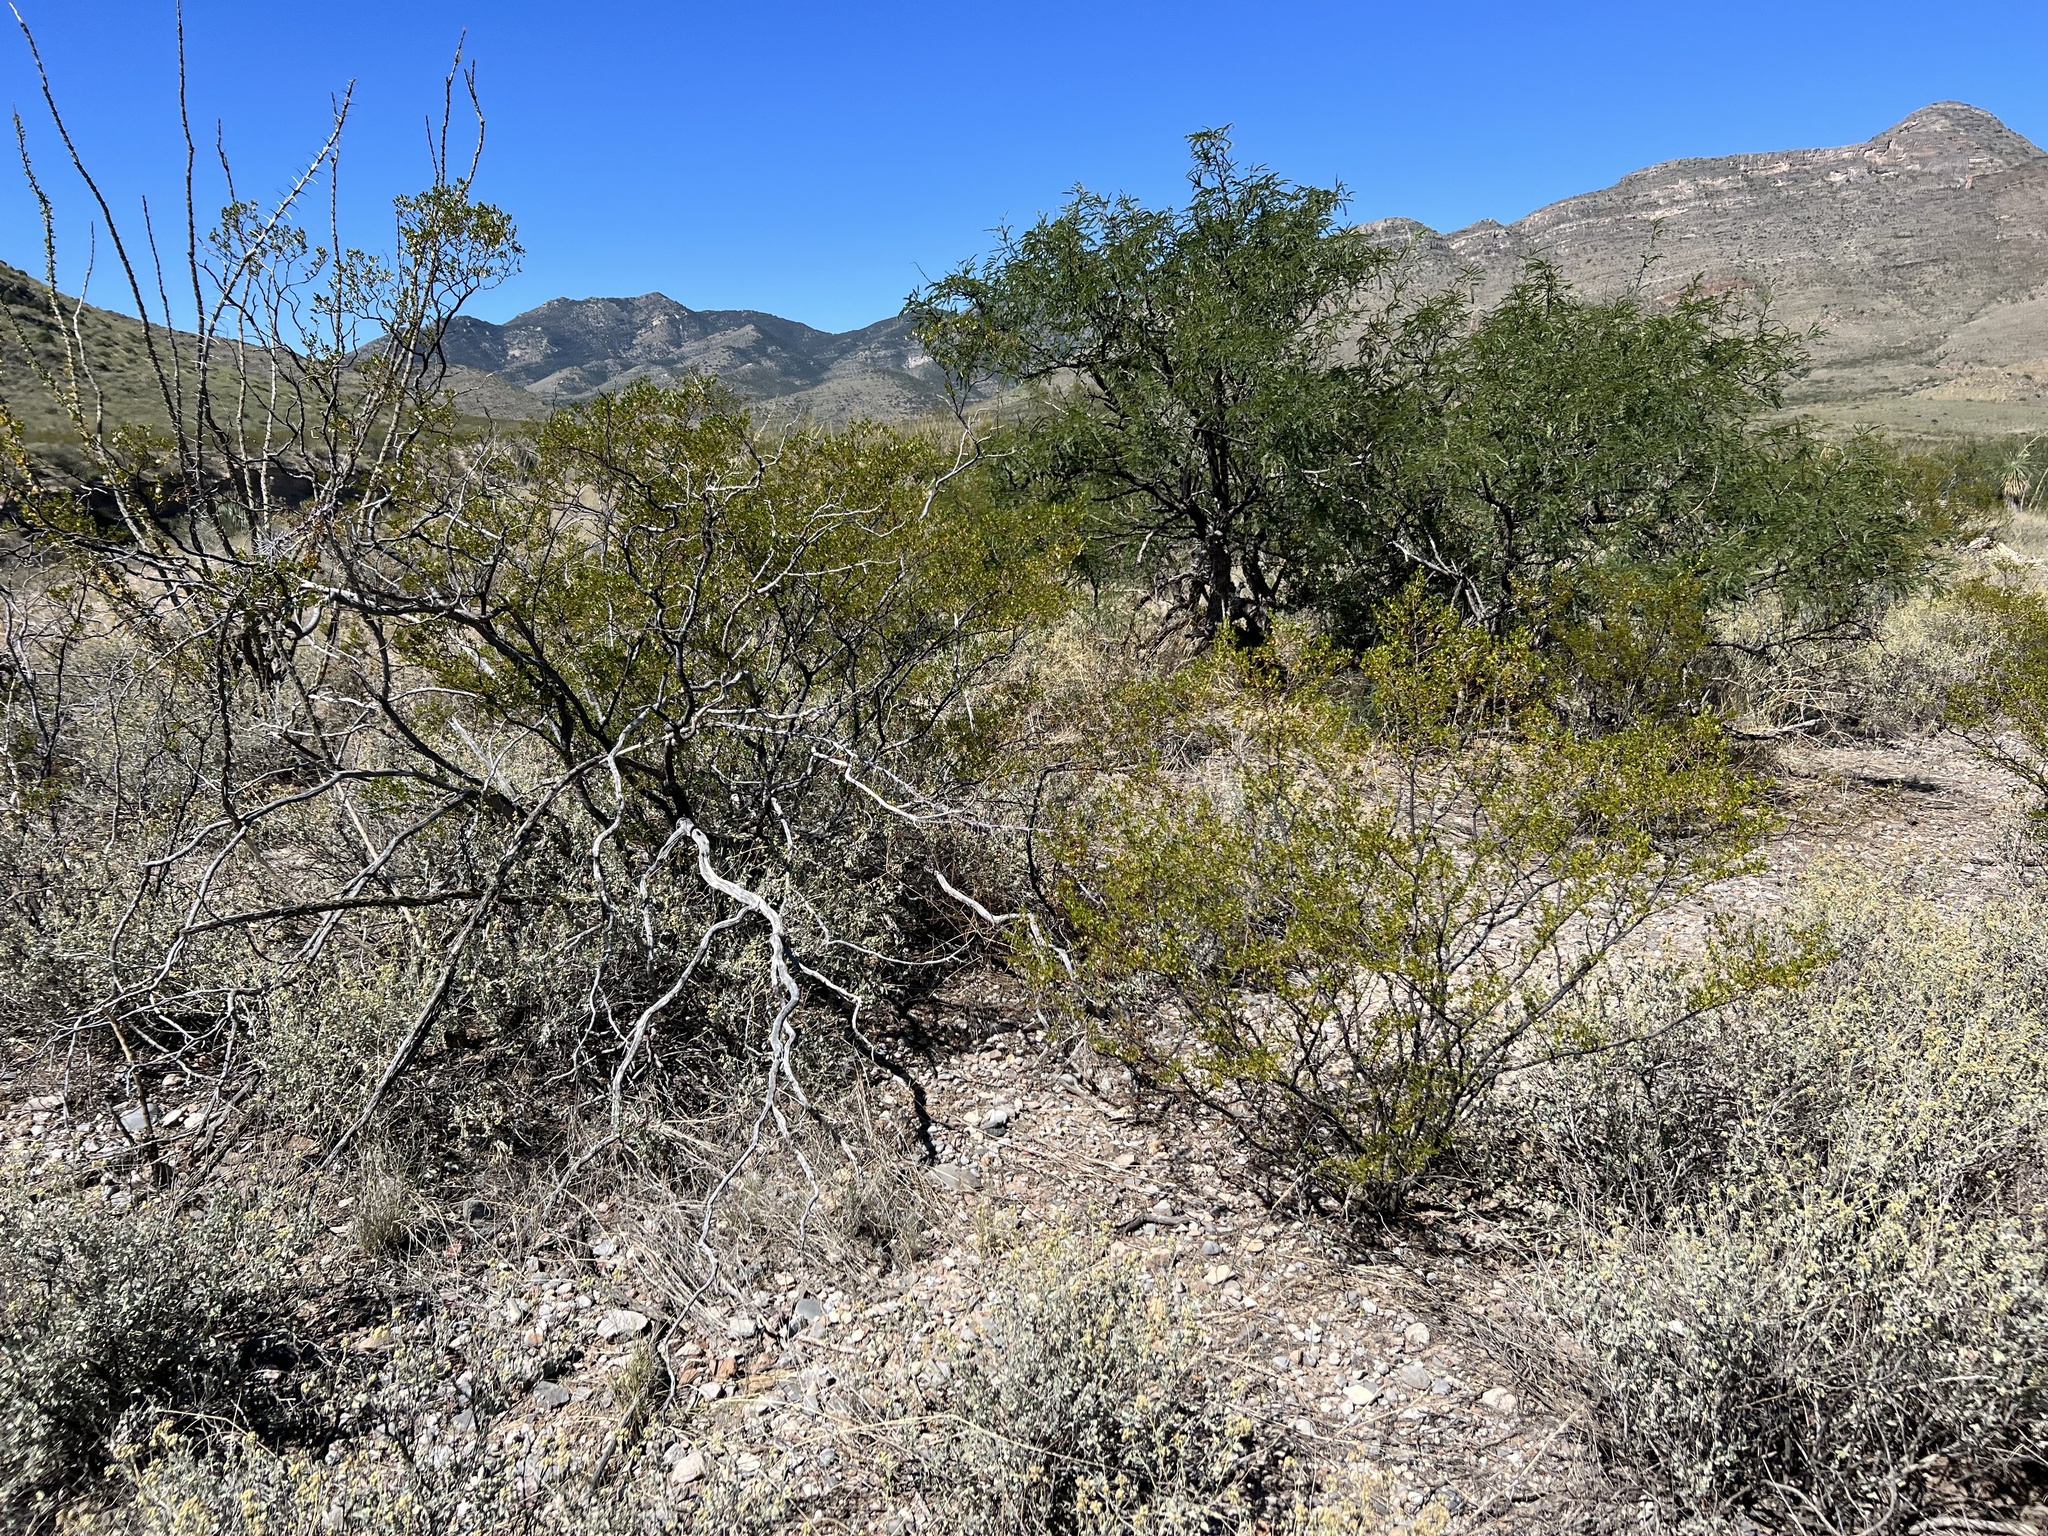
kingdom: Plantae
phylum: Tracheophyta
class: Magnoliopsida
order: Zygophyllales
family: Zygophyllaceae
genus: Larrea
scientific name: Larrea tridentata
